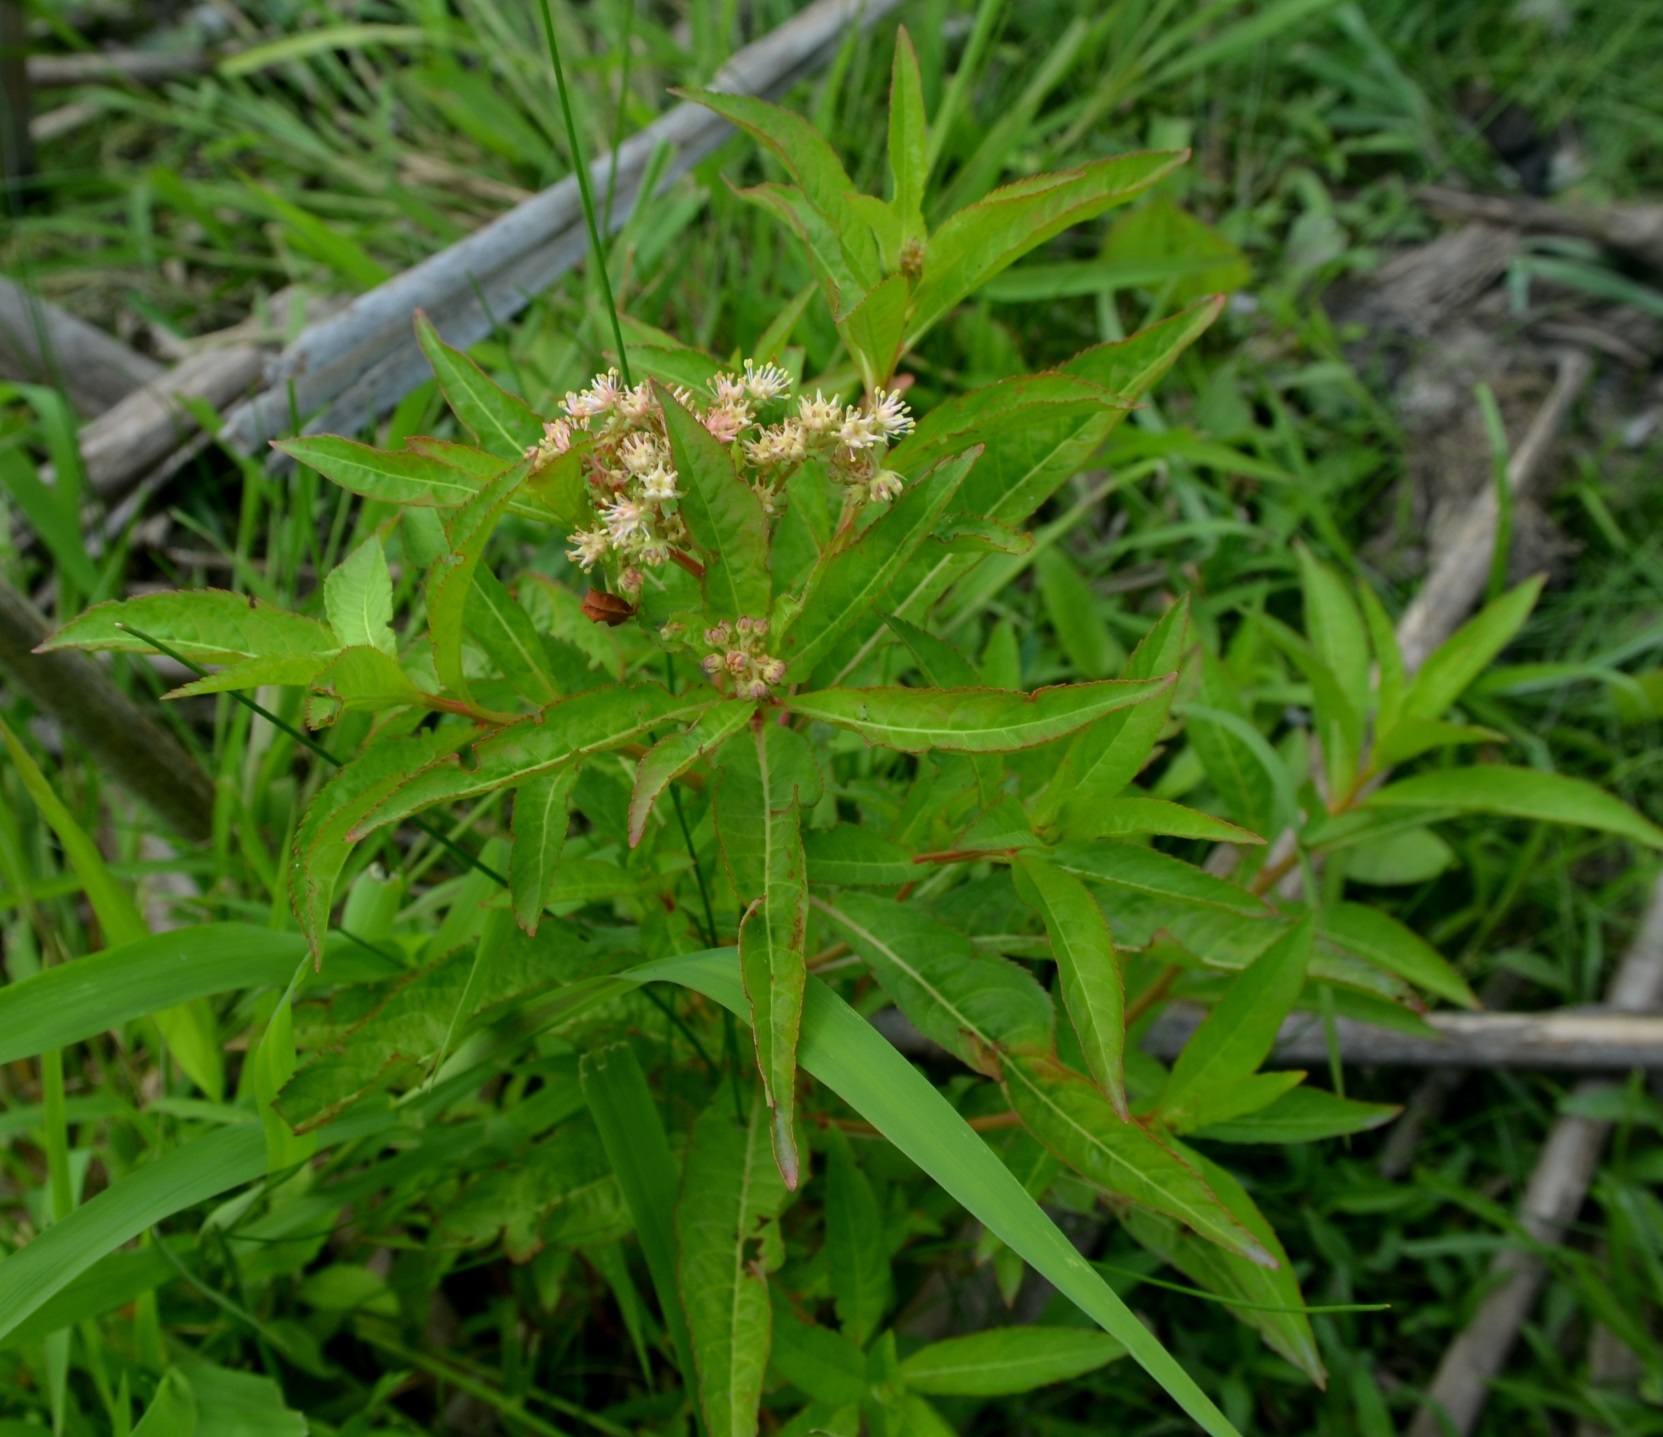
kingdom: Plantae
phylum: Tracheophyta
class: Magnoliopsida
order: Saxifragales
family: Penthoraceae
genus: Penthorum
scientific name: Penthorum sedoides
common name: Ditch stonecrop
